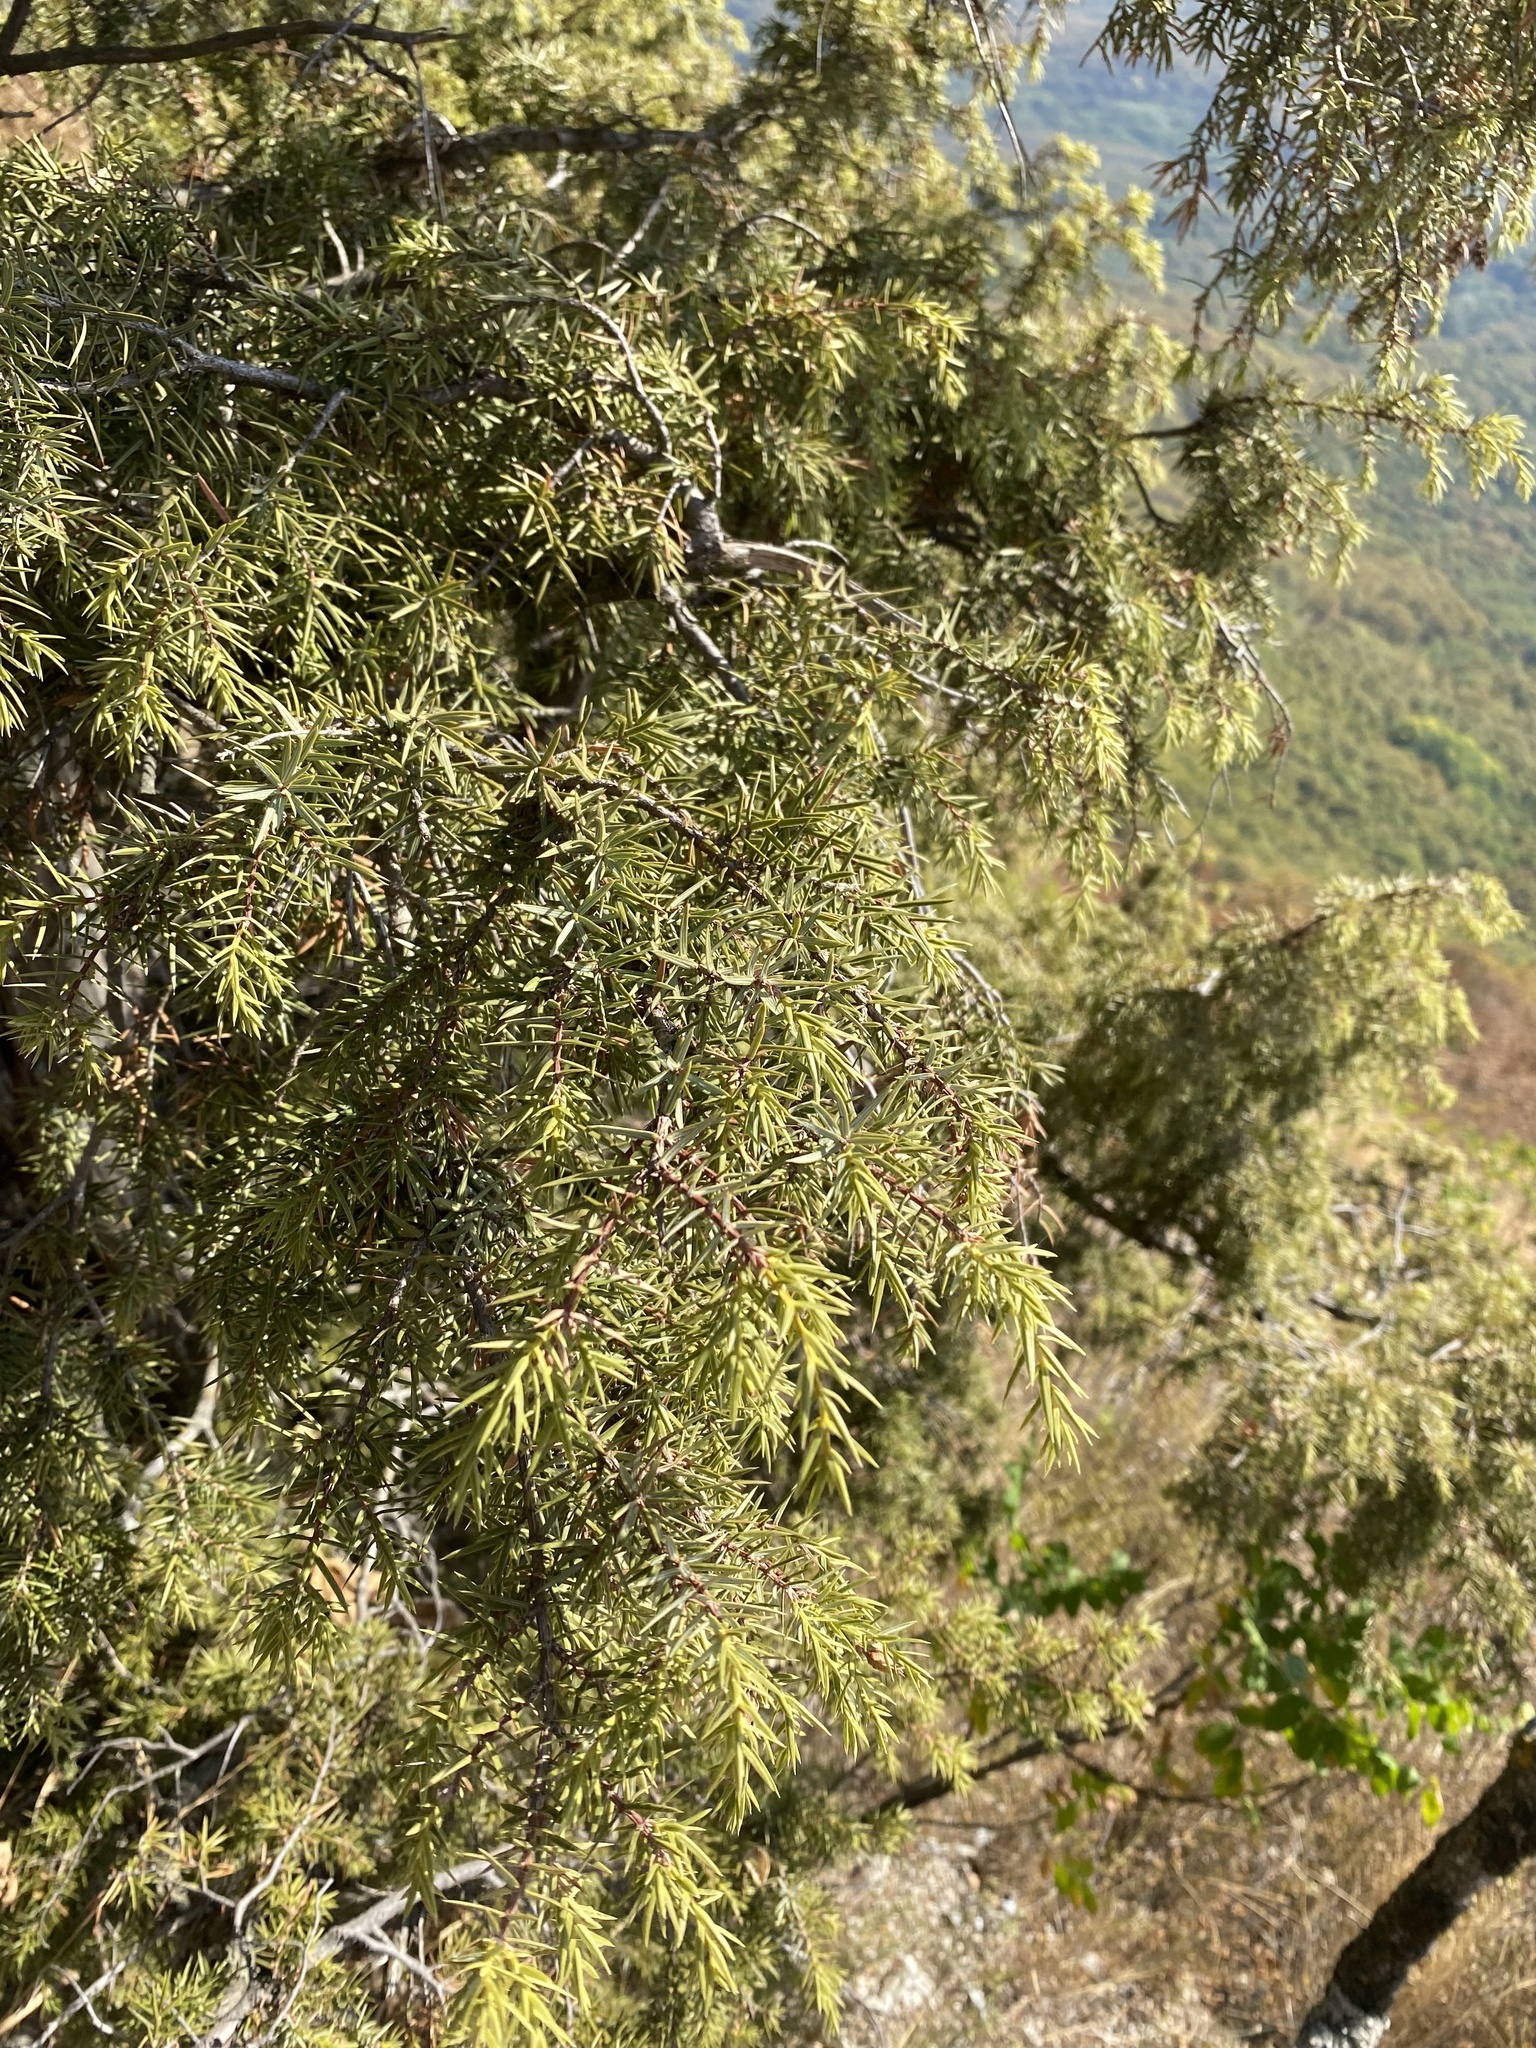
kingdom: Plantae
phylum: Tracheophyta
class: Pinopsida
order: Pinales
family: Cupressaceae
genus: Juniperus
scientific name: Juniperus oxycedrus
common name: Prickly juniper
